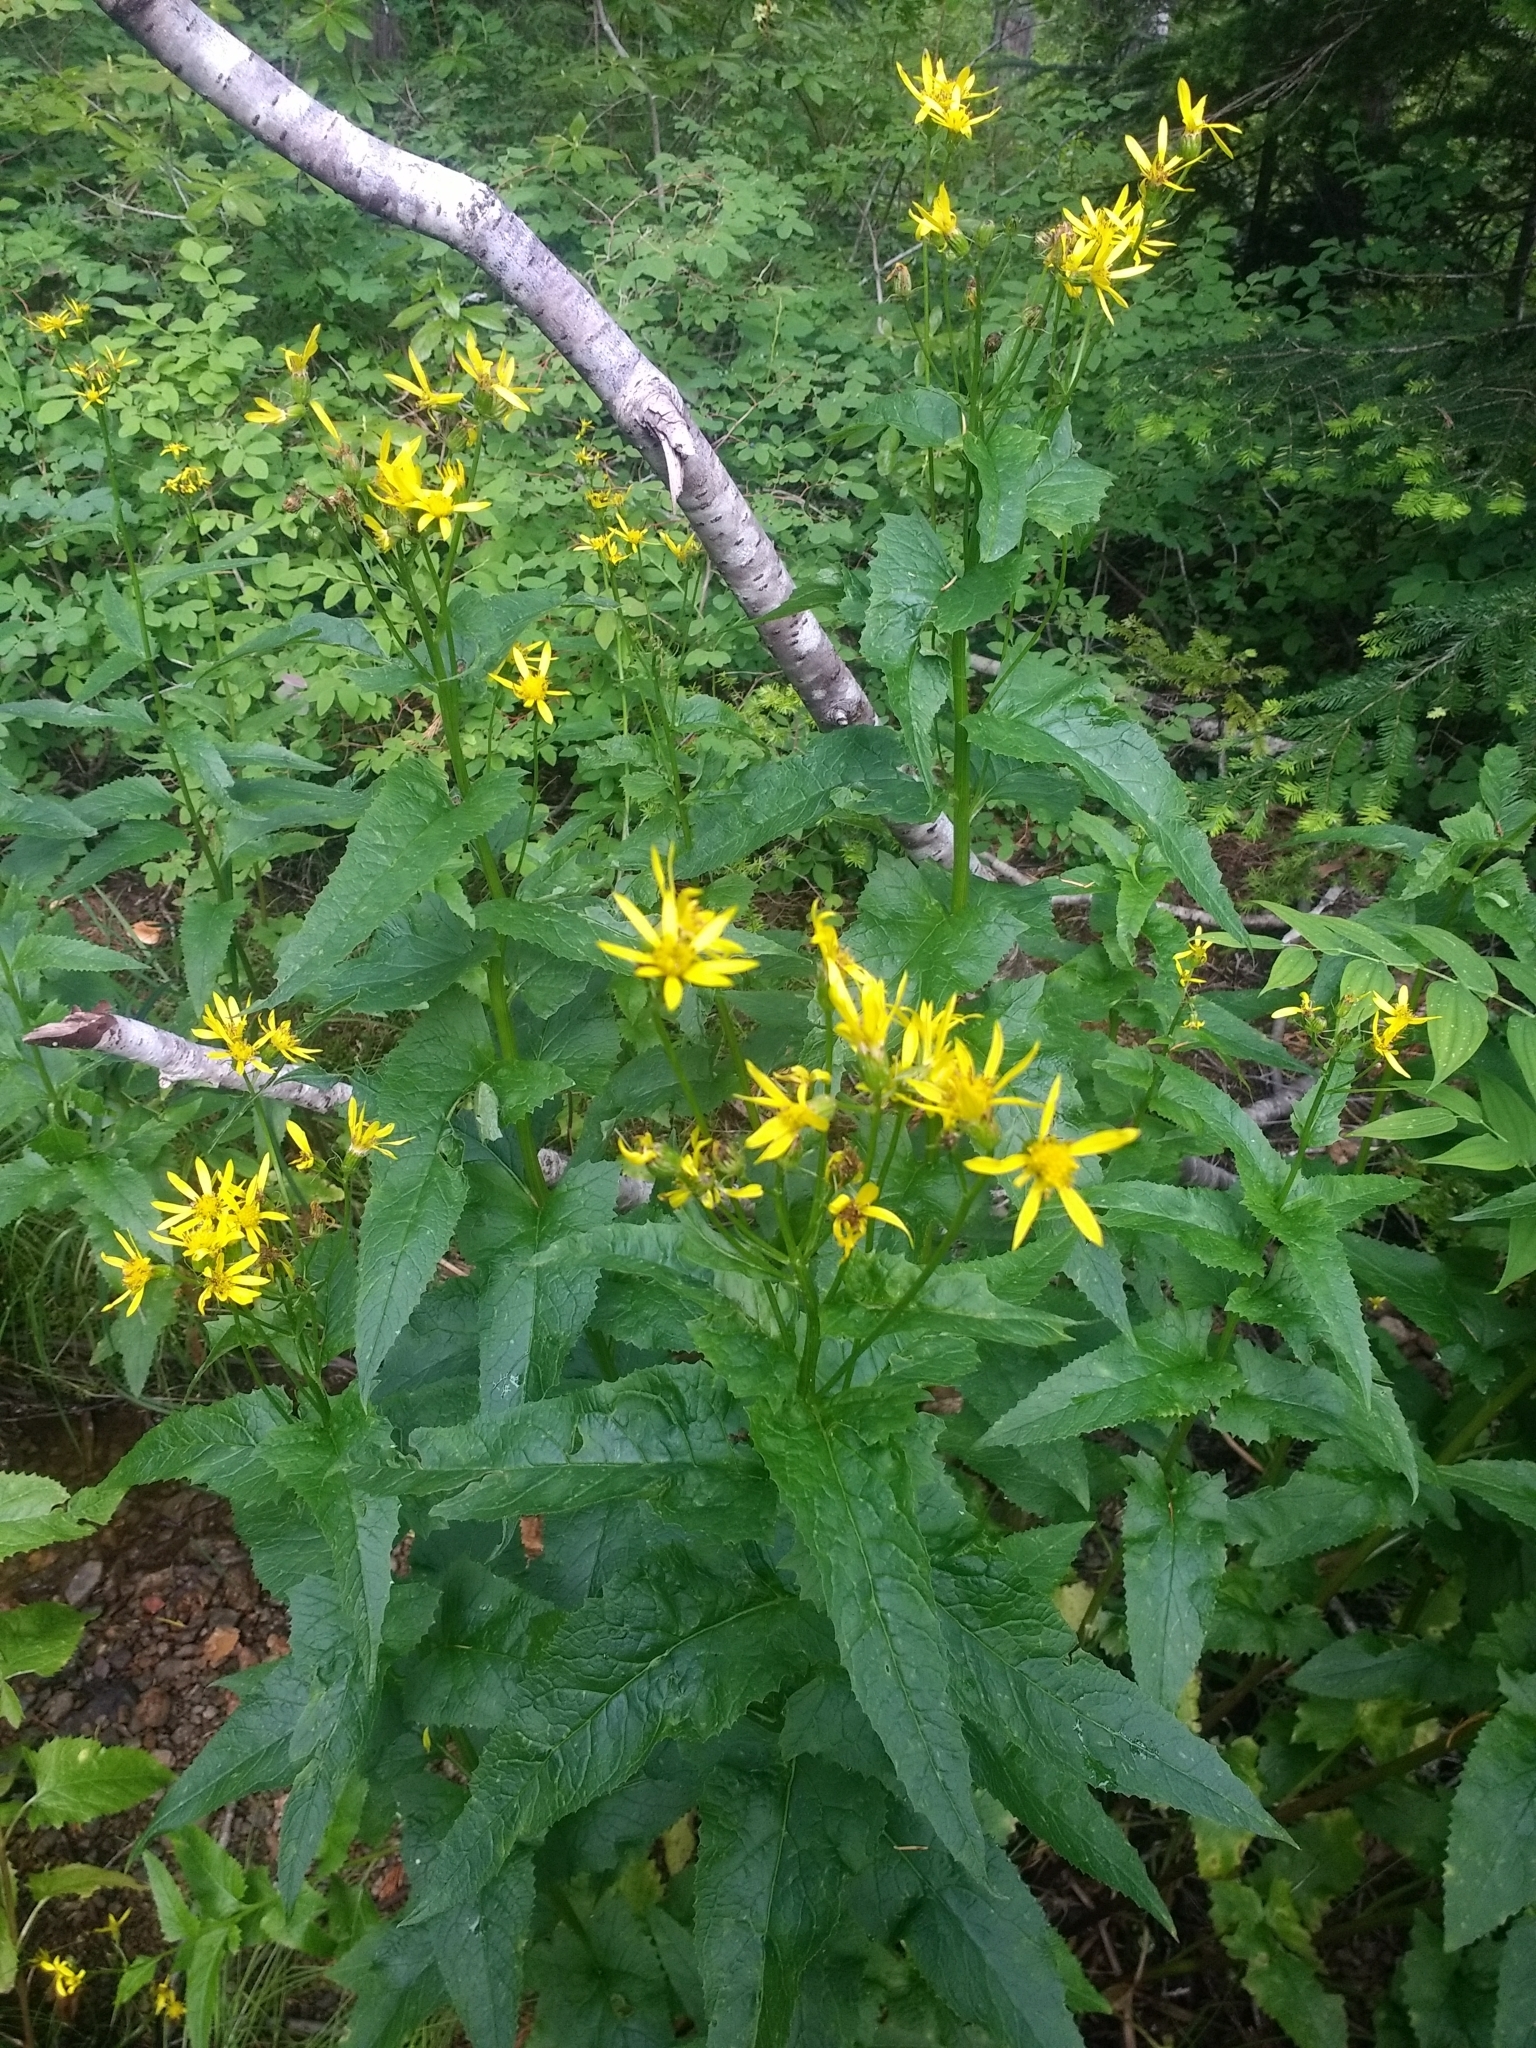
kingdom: Plantae
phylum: Tracheophyta
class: Magnoliopsida
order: Asterales
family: Asteraceae
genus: Senecio
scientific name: Senecio triangularis
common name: Arrowleaf butterweed
